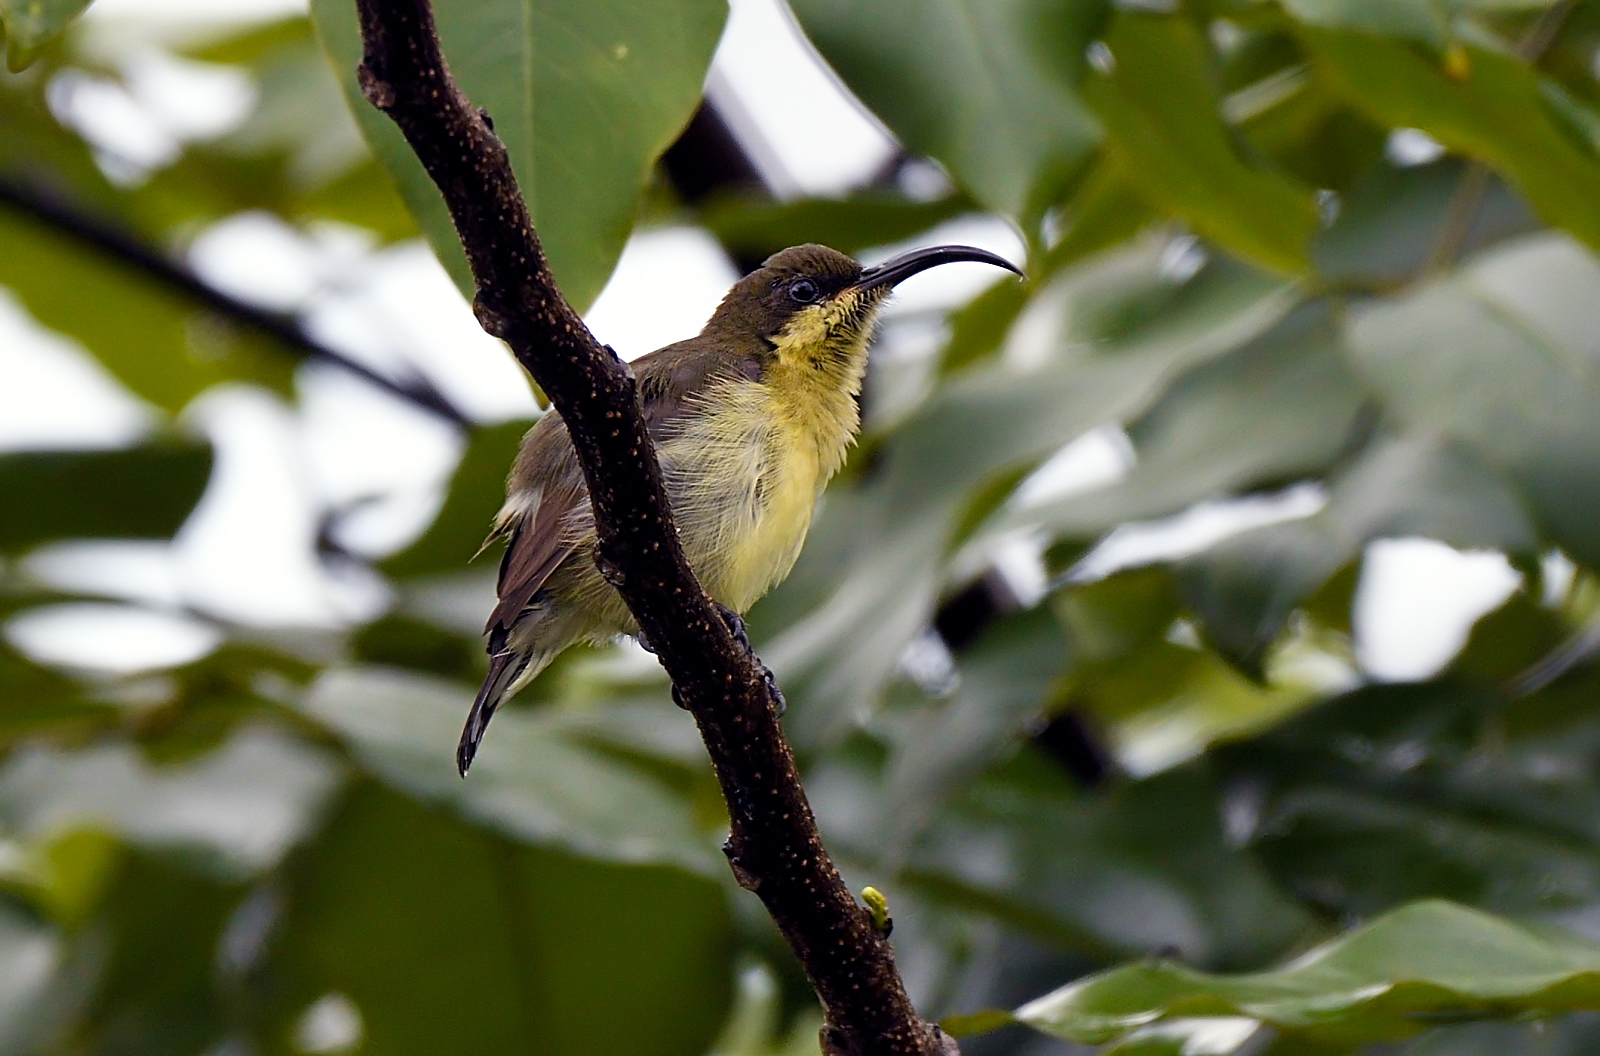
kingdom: Animalia
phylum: Chordata
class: Aves
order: Passeriformes
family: Nectariniidae
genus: Cinnyris
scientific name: Cinnyris lotenius
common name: Loten's sunbird
